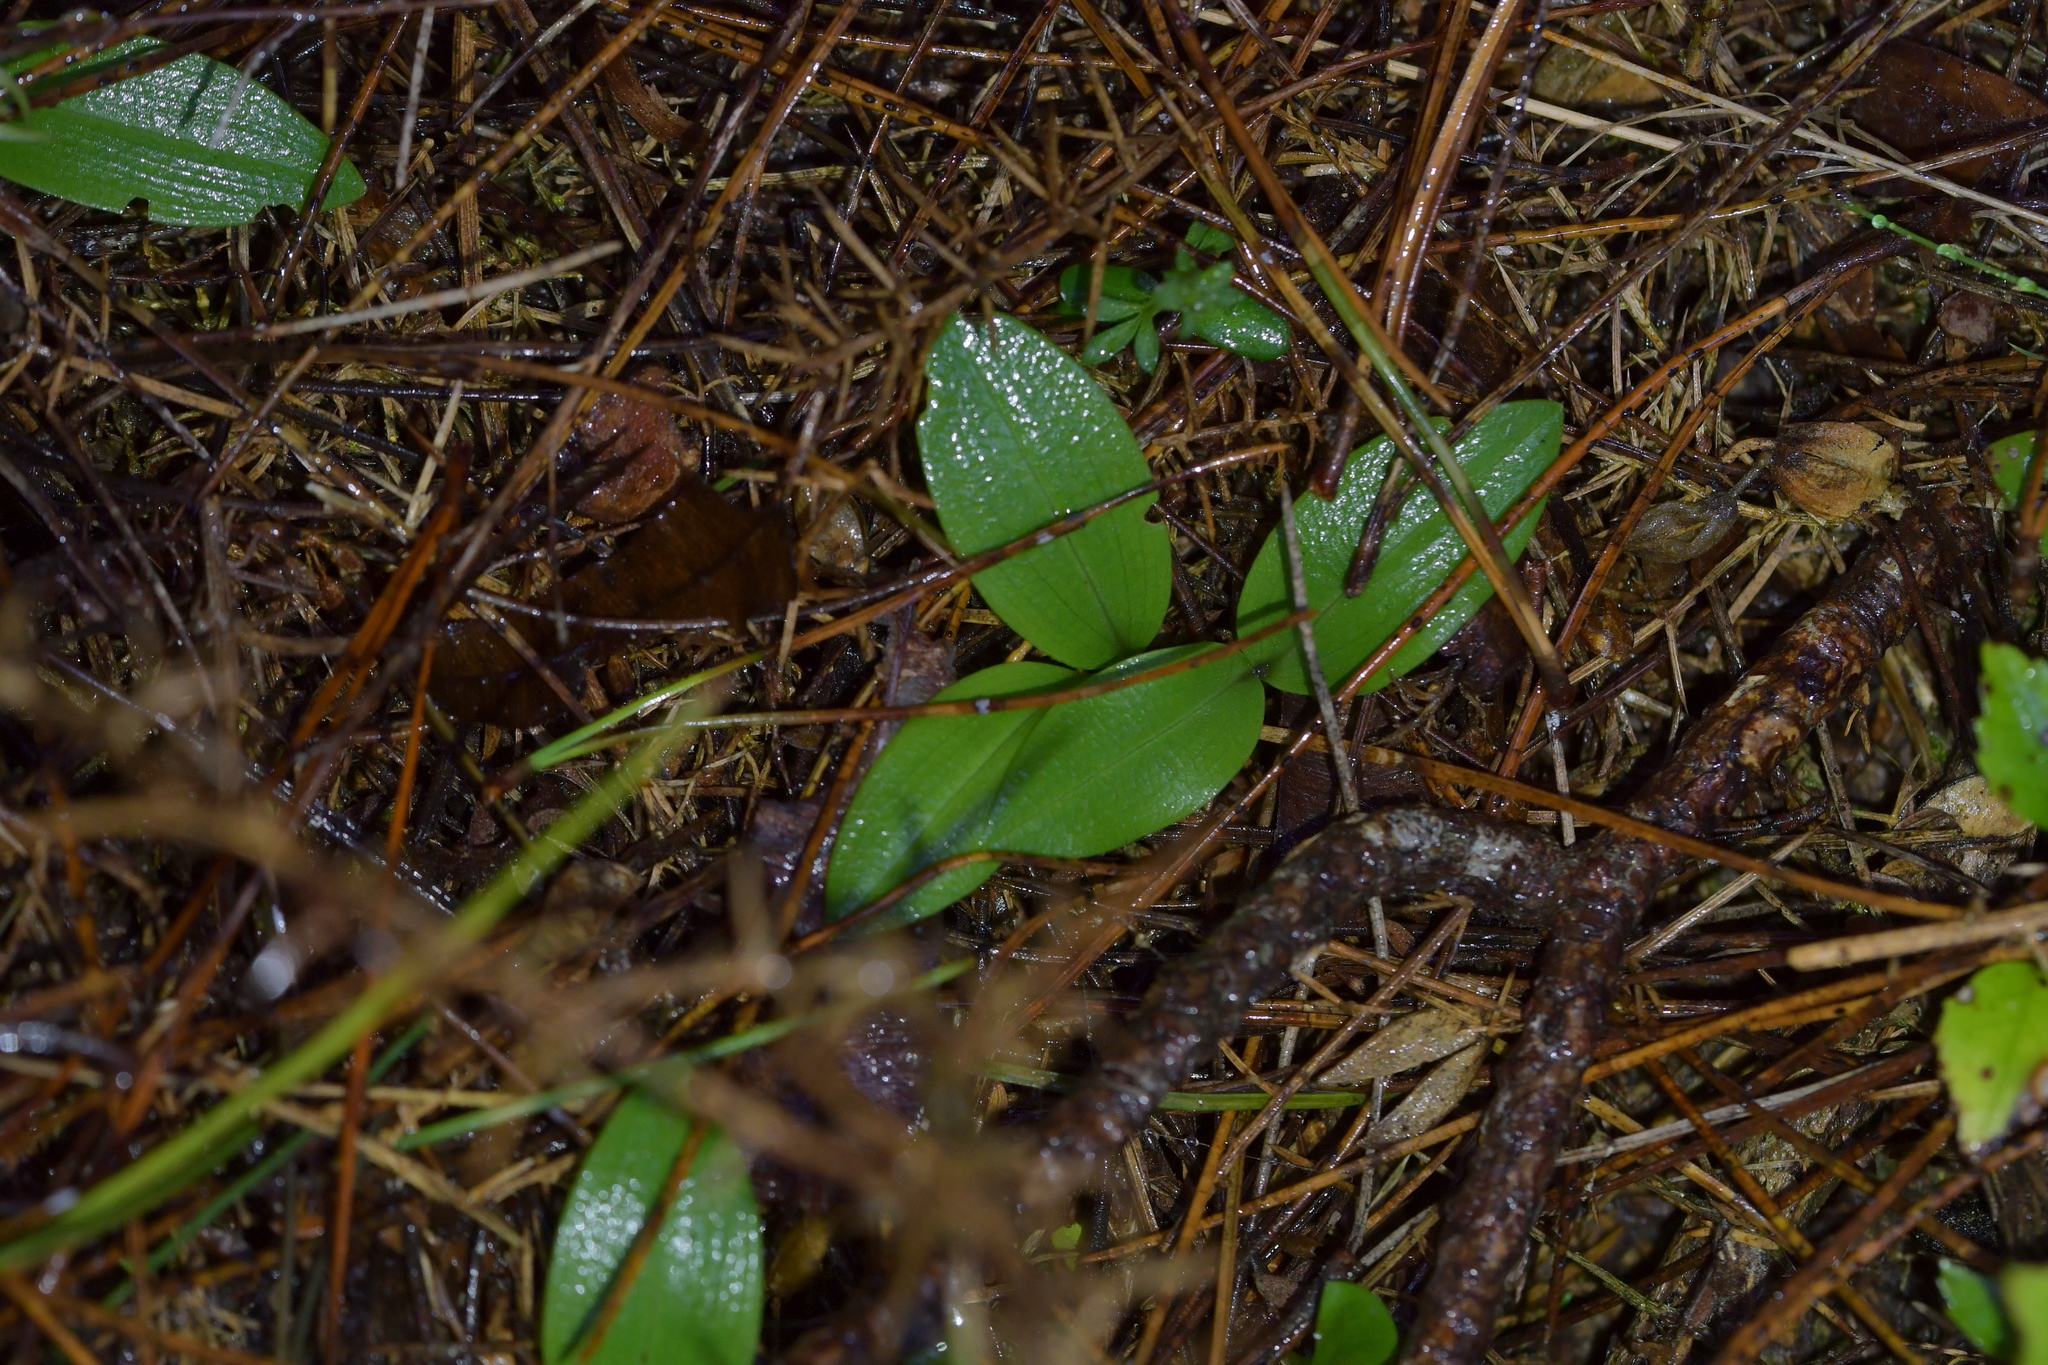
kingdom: Plantae
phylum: Tracheophyta
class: Liliopsida
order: Asparagales
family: Orchidaceae
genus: Chiloglottis
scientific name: Chiloglottis cornuta
